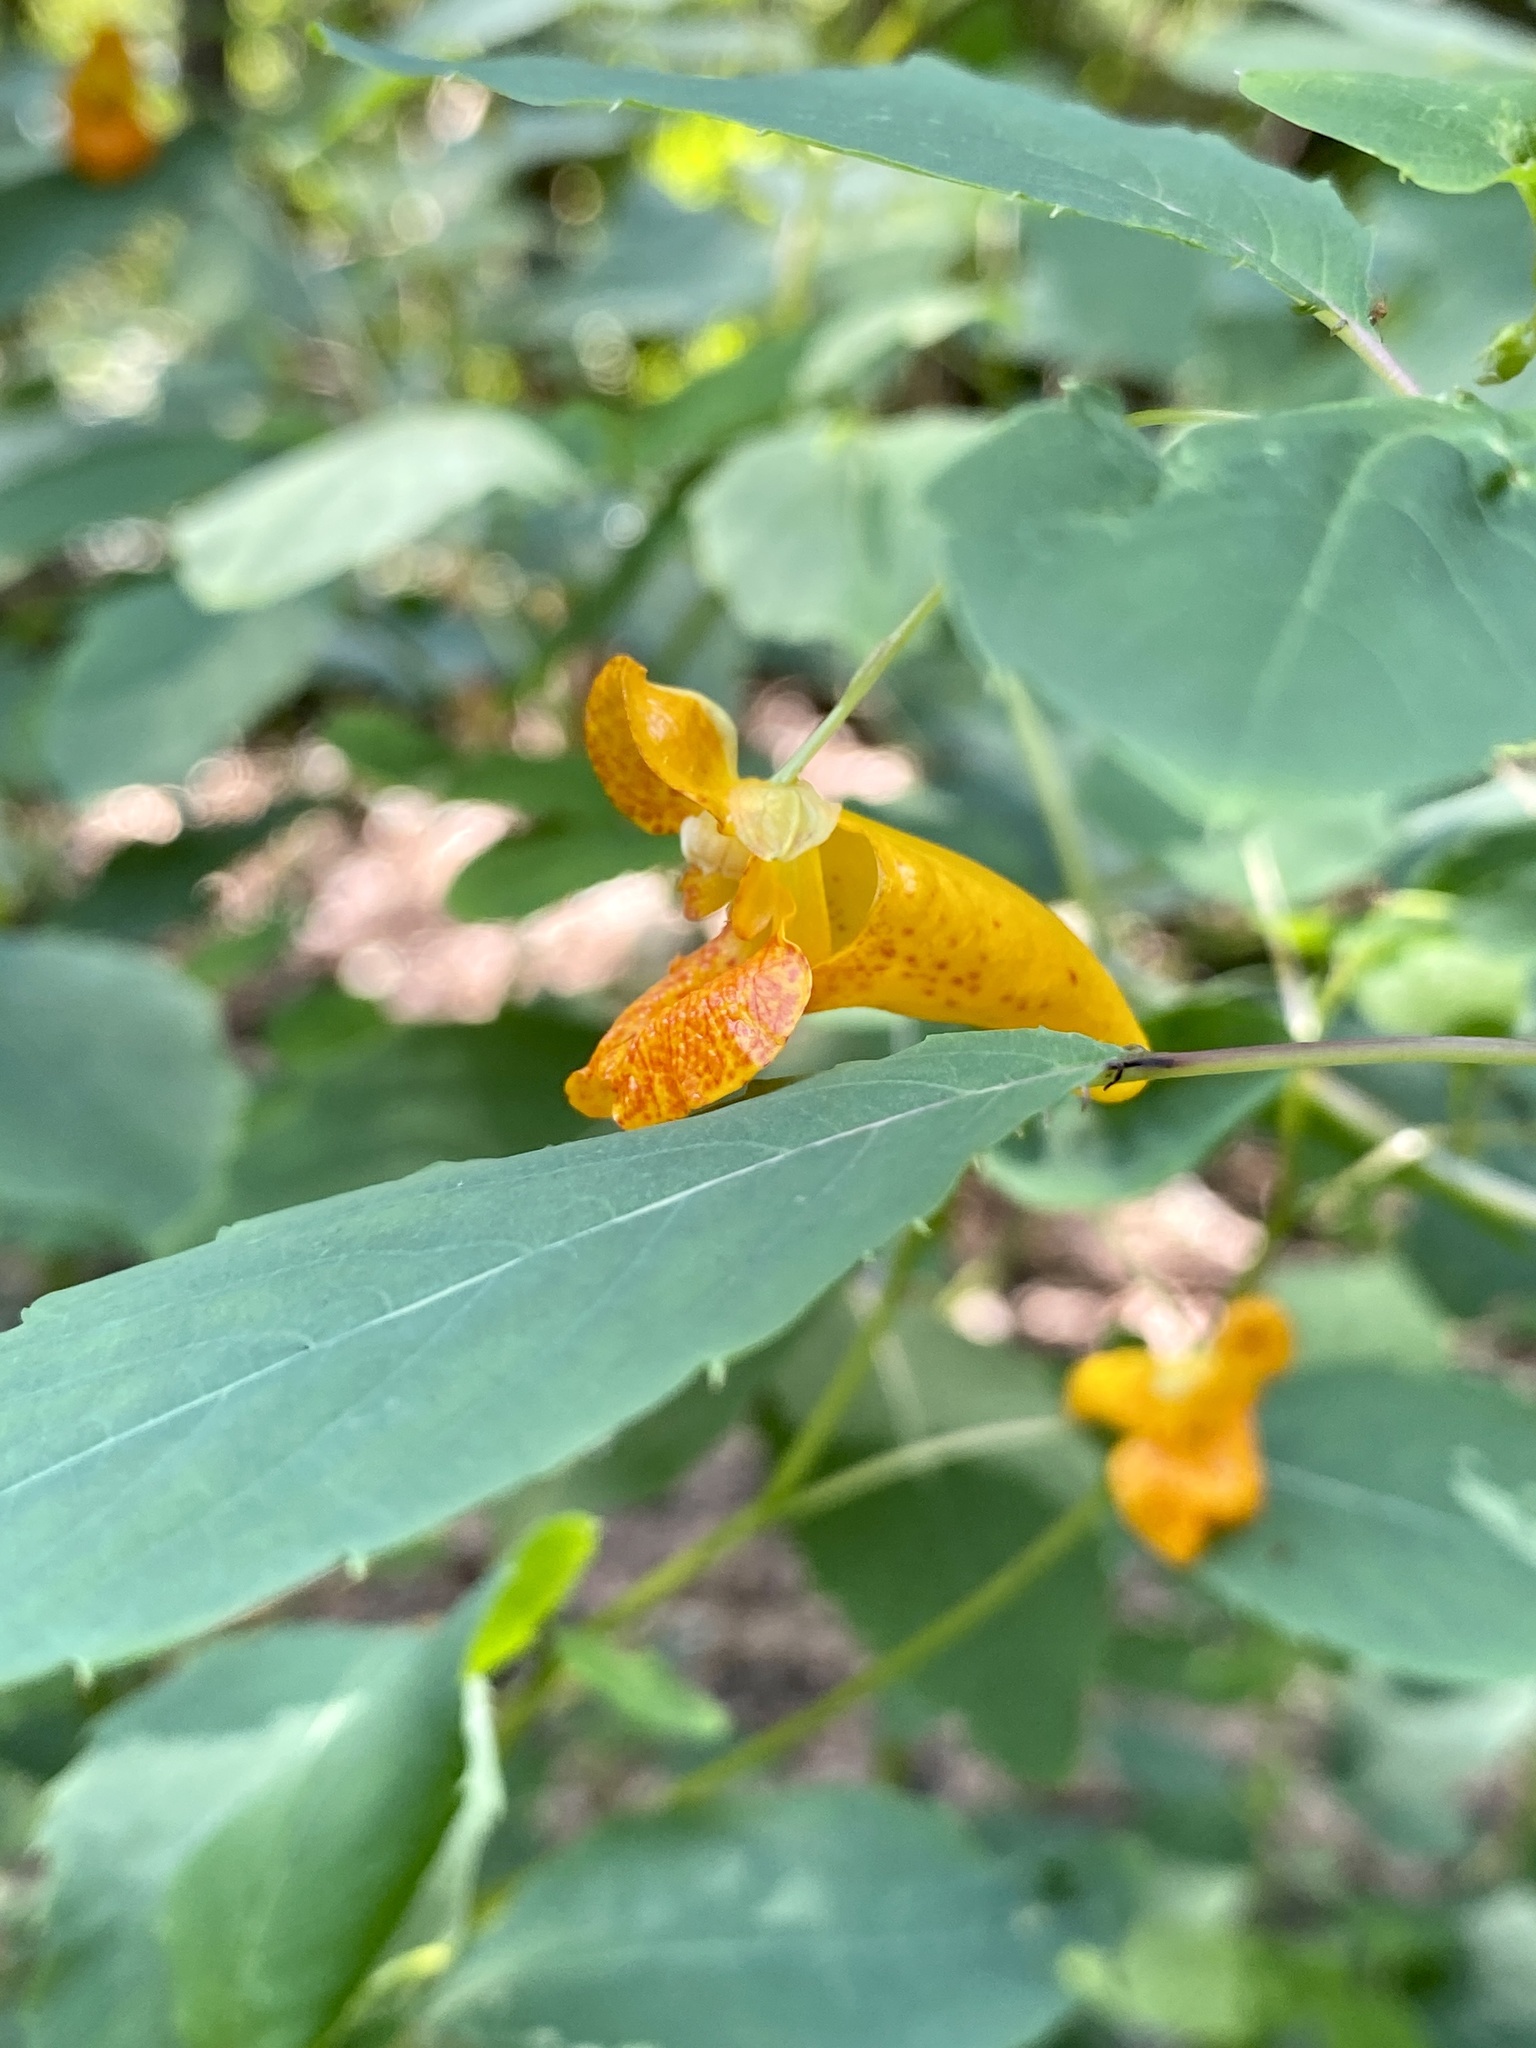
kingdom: Plantae
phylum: Tracheophyta
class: Magnoliopsida
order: Ericales
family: Balsaminaceae
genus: Impatiens
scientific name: Impatiens capensis
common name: Orange balsam
